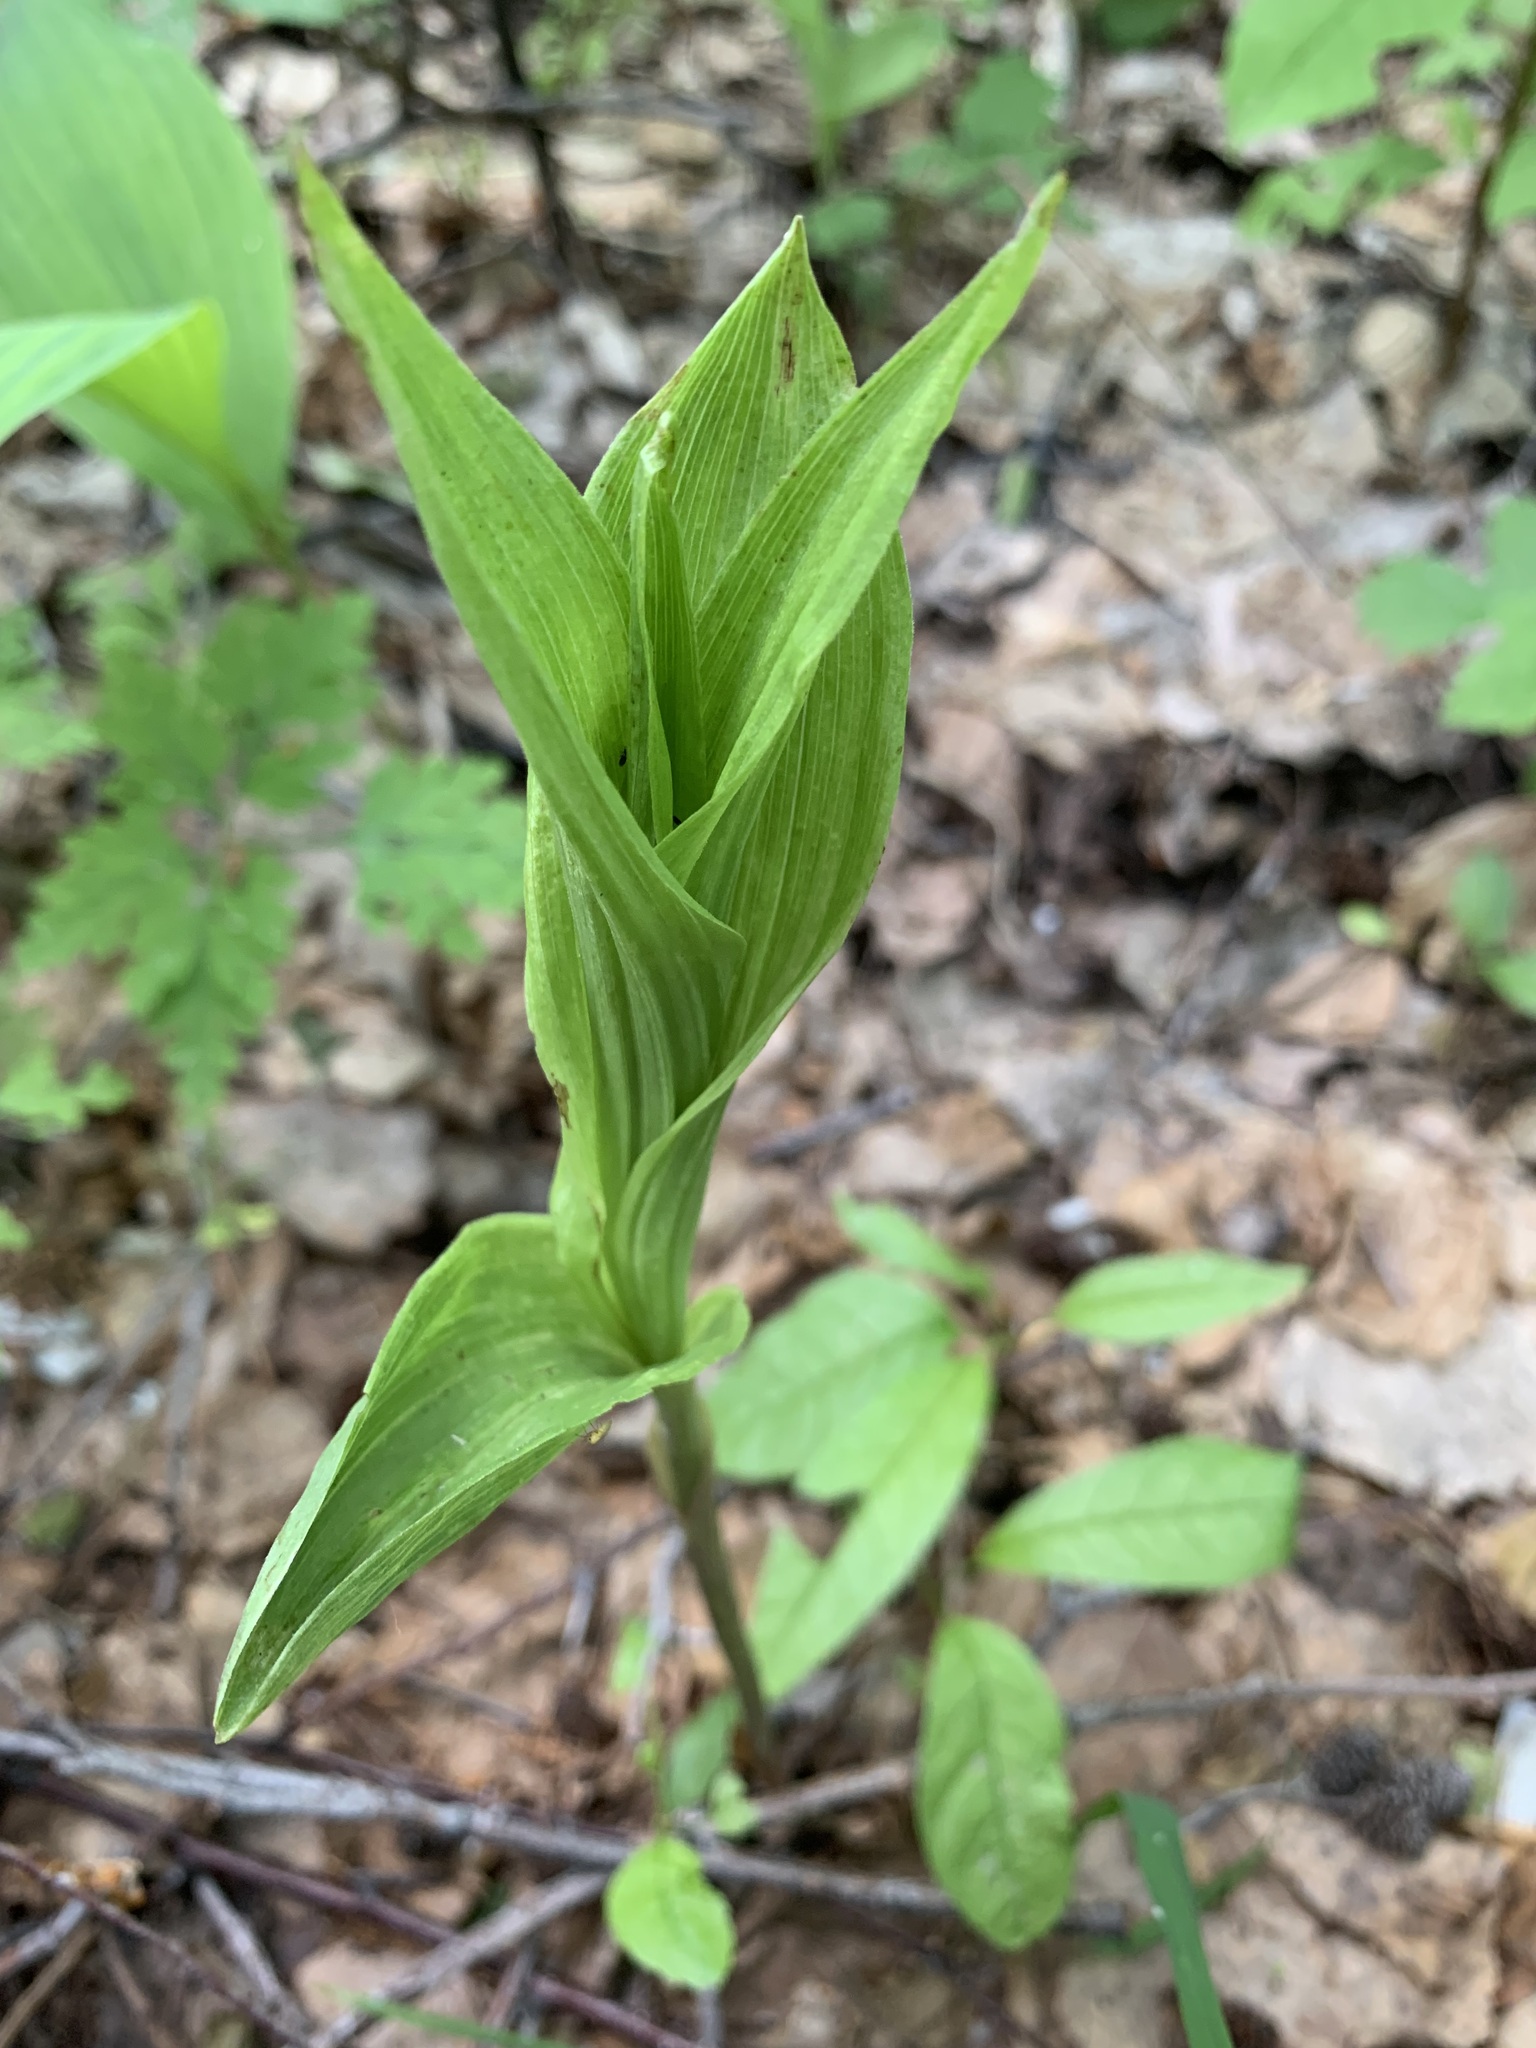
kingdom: Plantae
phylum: Tracheophyta
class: Liliopsida
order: Asparagales
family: Orchidaceae
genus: Epipactis
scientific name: Epipactis helleborine
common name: Broad-leaved helleborine
